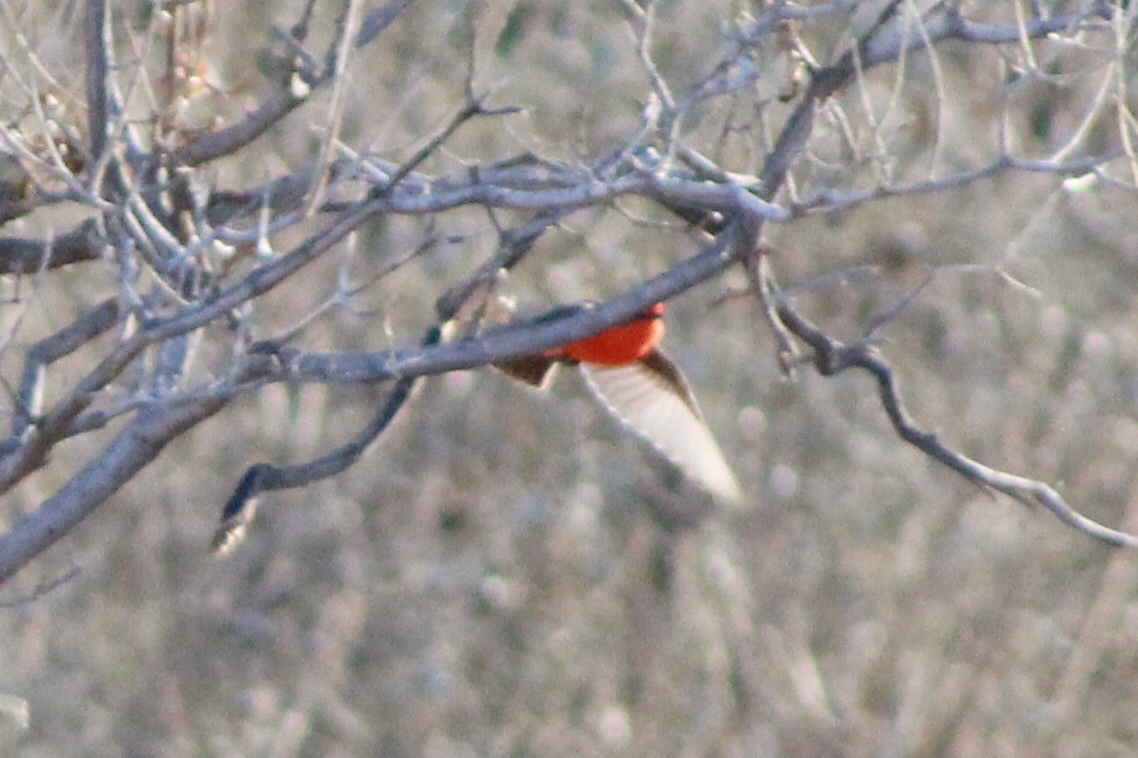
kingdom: Animalia
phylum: Chordata
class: Aves
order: Passeriformes
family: Tyrannidae
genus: Pyrocephalus
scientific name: Pyrocephalus rubinus
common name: Vermilion flycatcher
